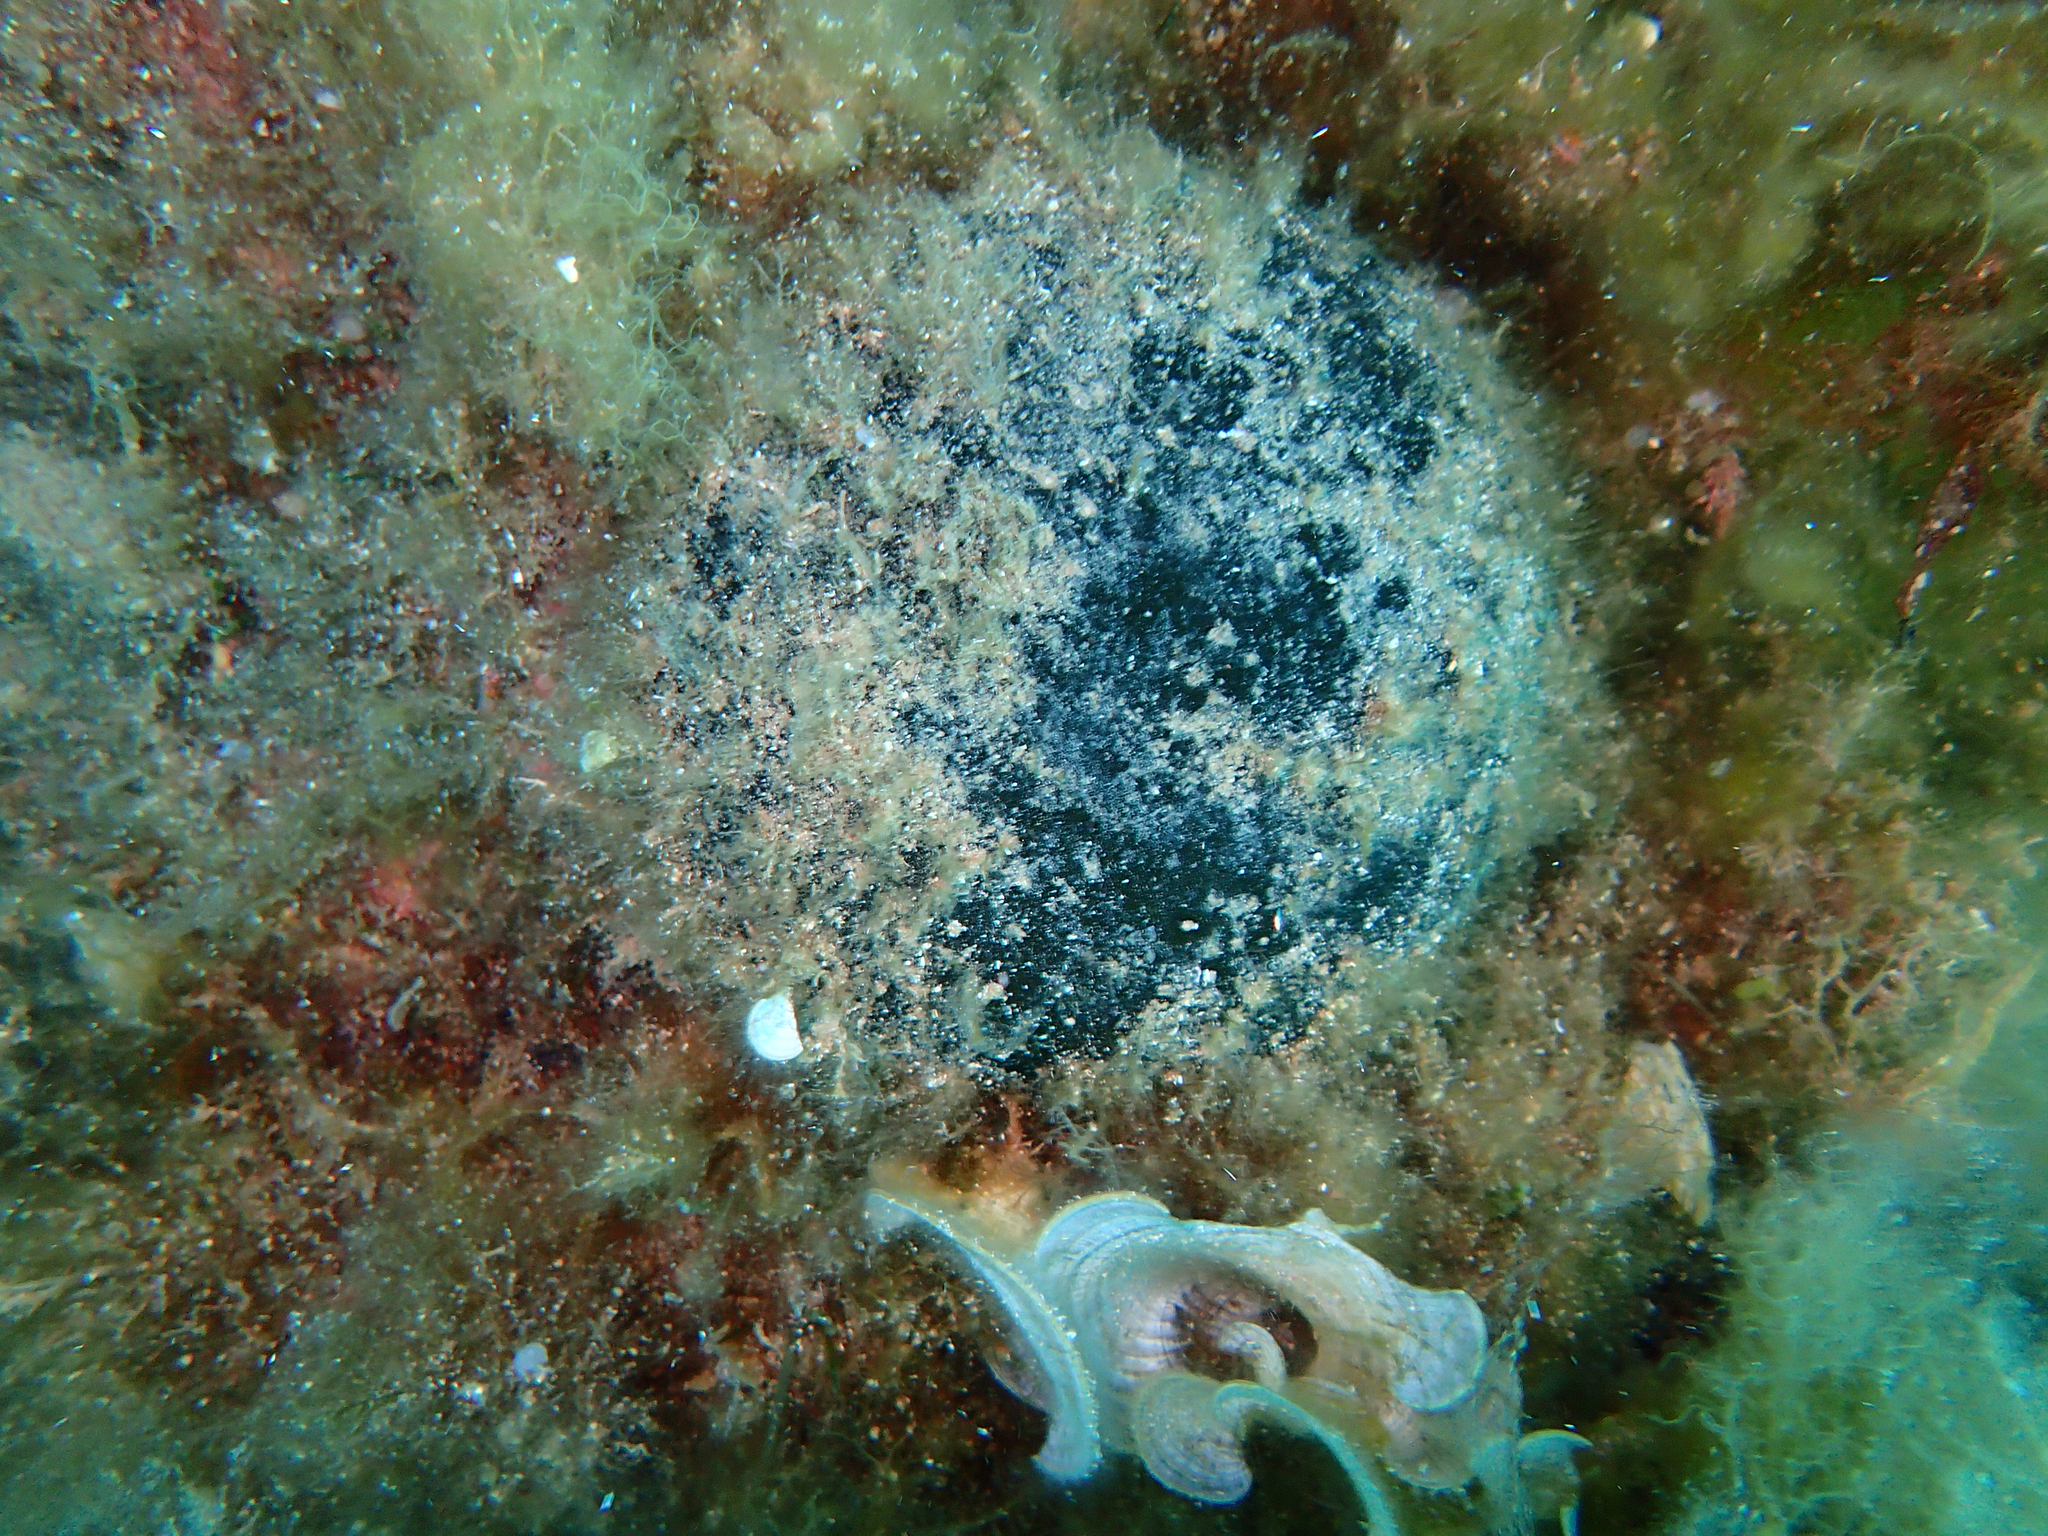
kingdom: Plantae
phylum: Chlorophyta
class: Ulvophyceae
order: Bryopsidales
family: Codiaceae
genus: Codium
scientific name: Codium bursa
